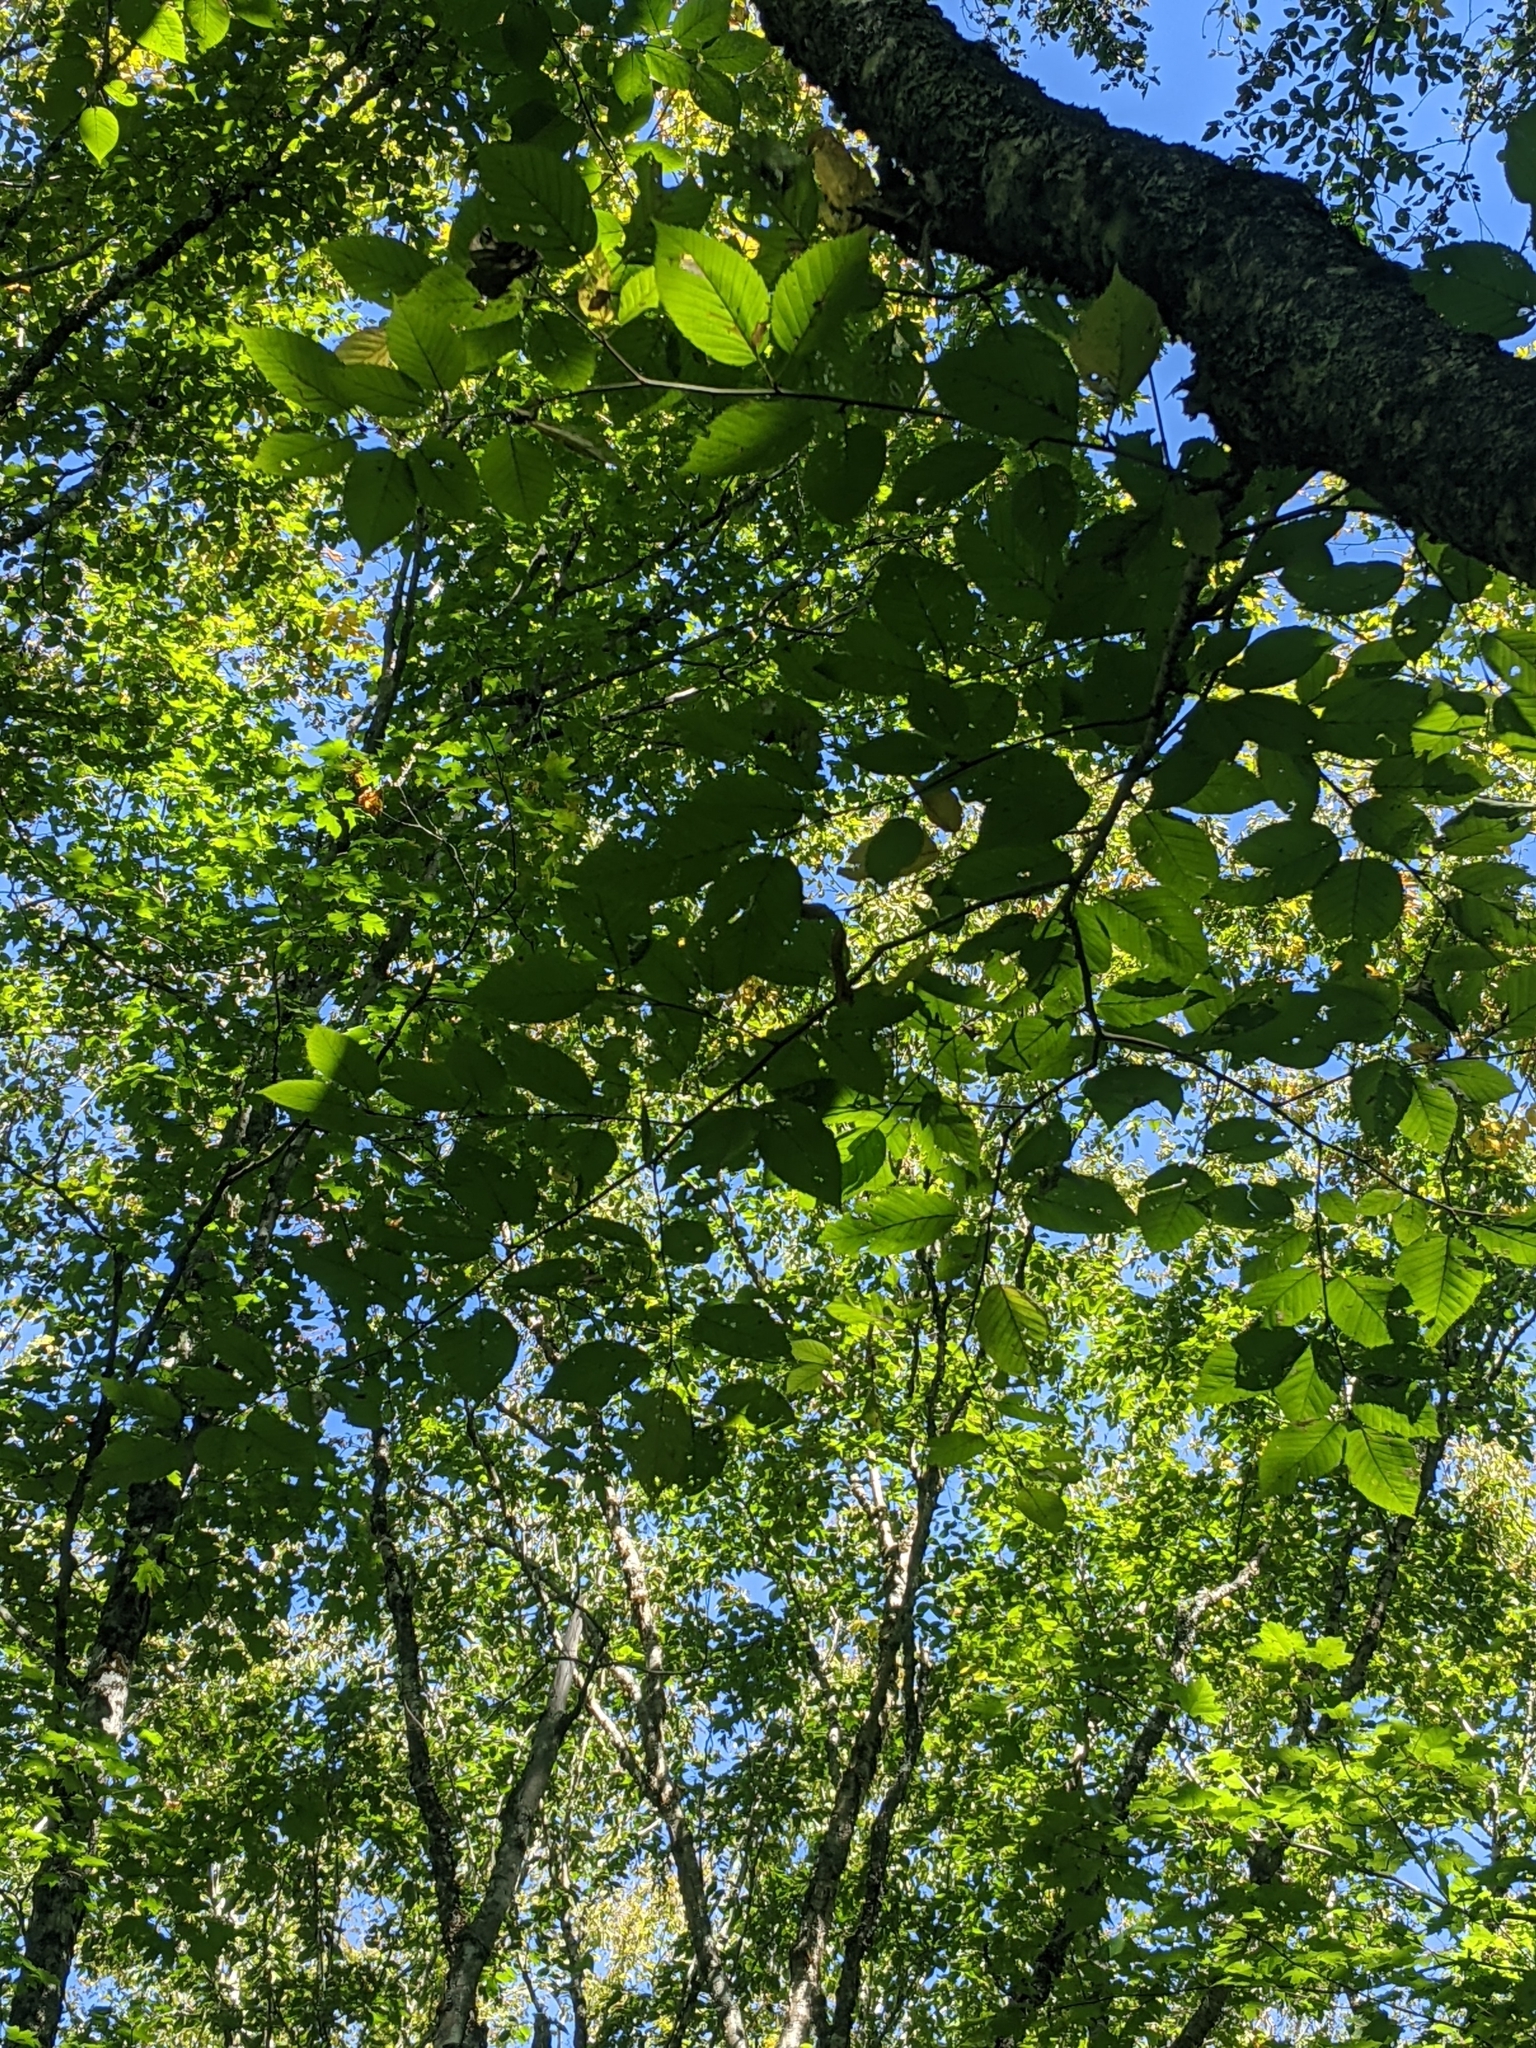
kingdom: Plantae
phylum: Tracheophyta
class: Magnoliopsida
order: Fagales
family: Betulaceae
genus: Betula
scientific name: Betula alleghaniensis
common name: Yellow birch
